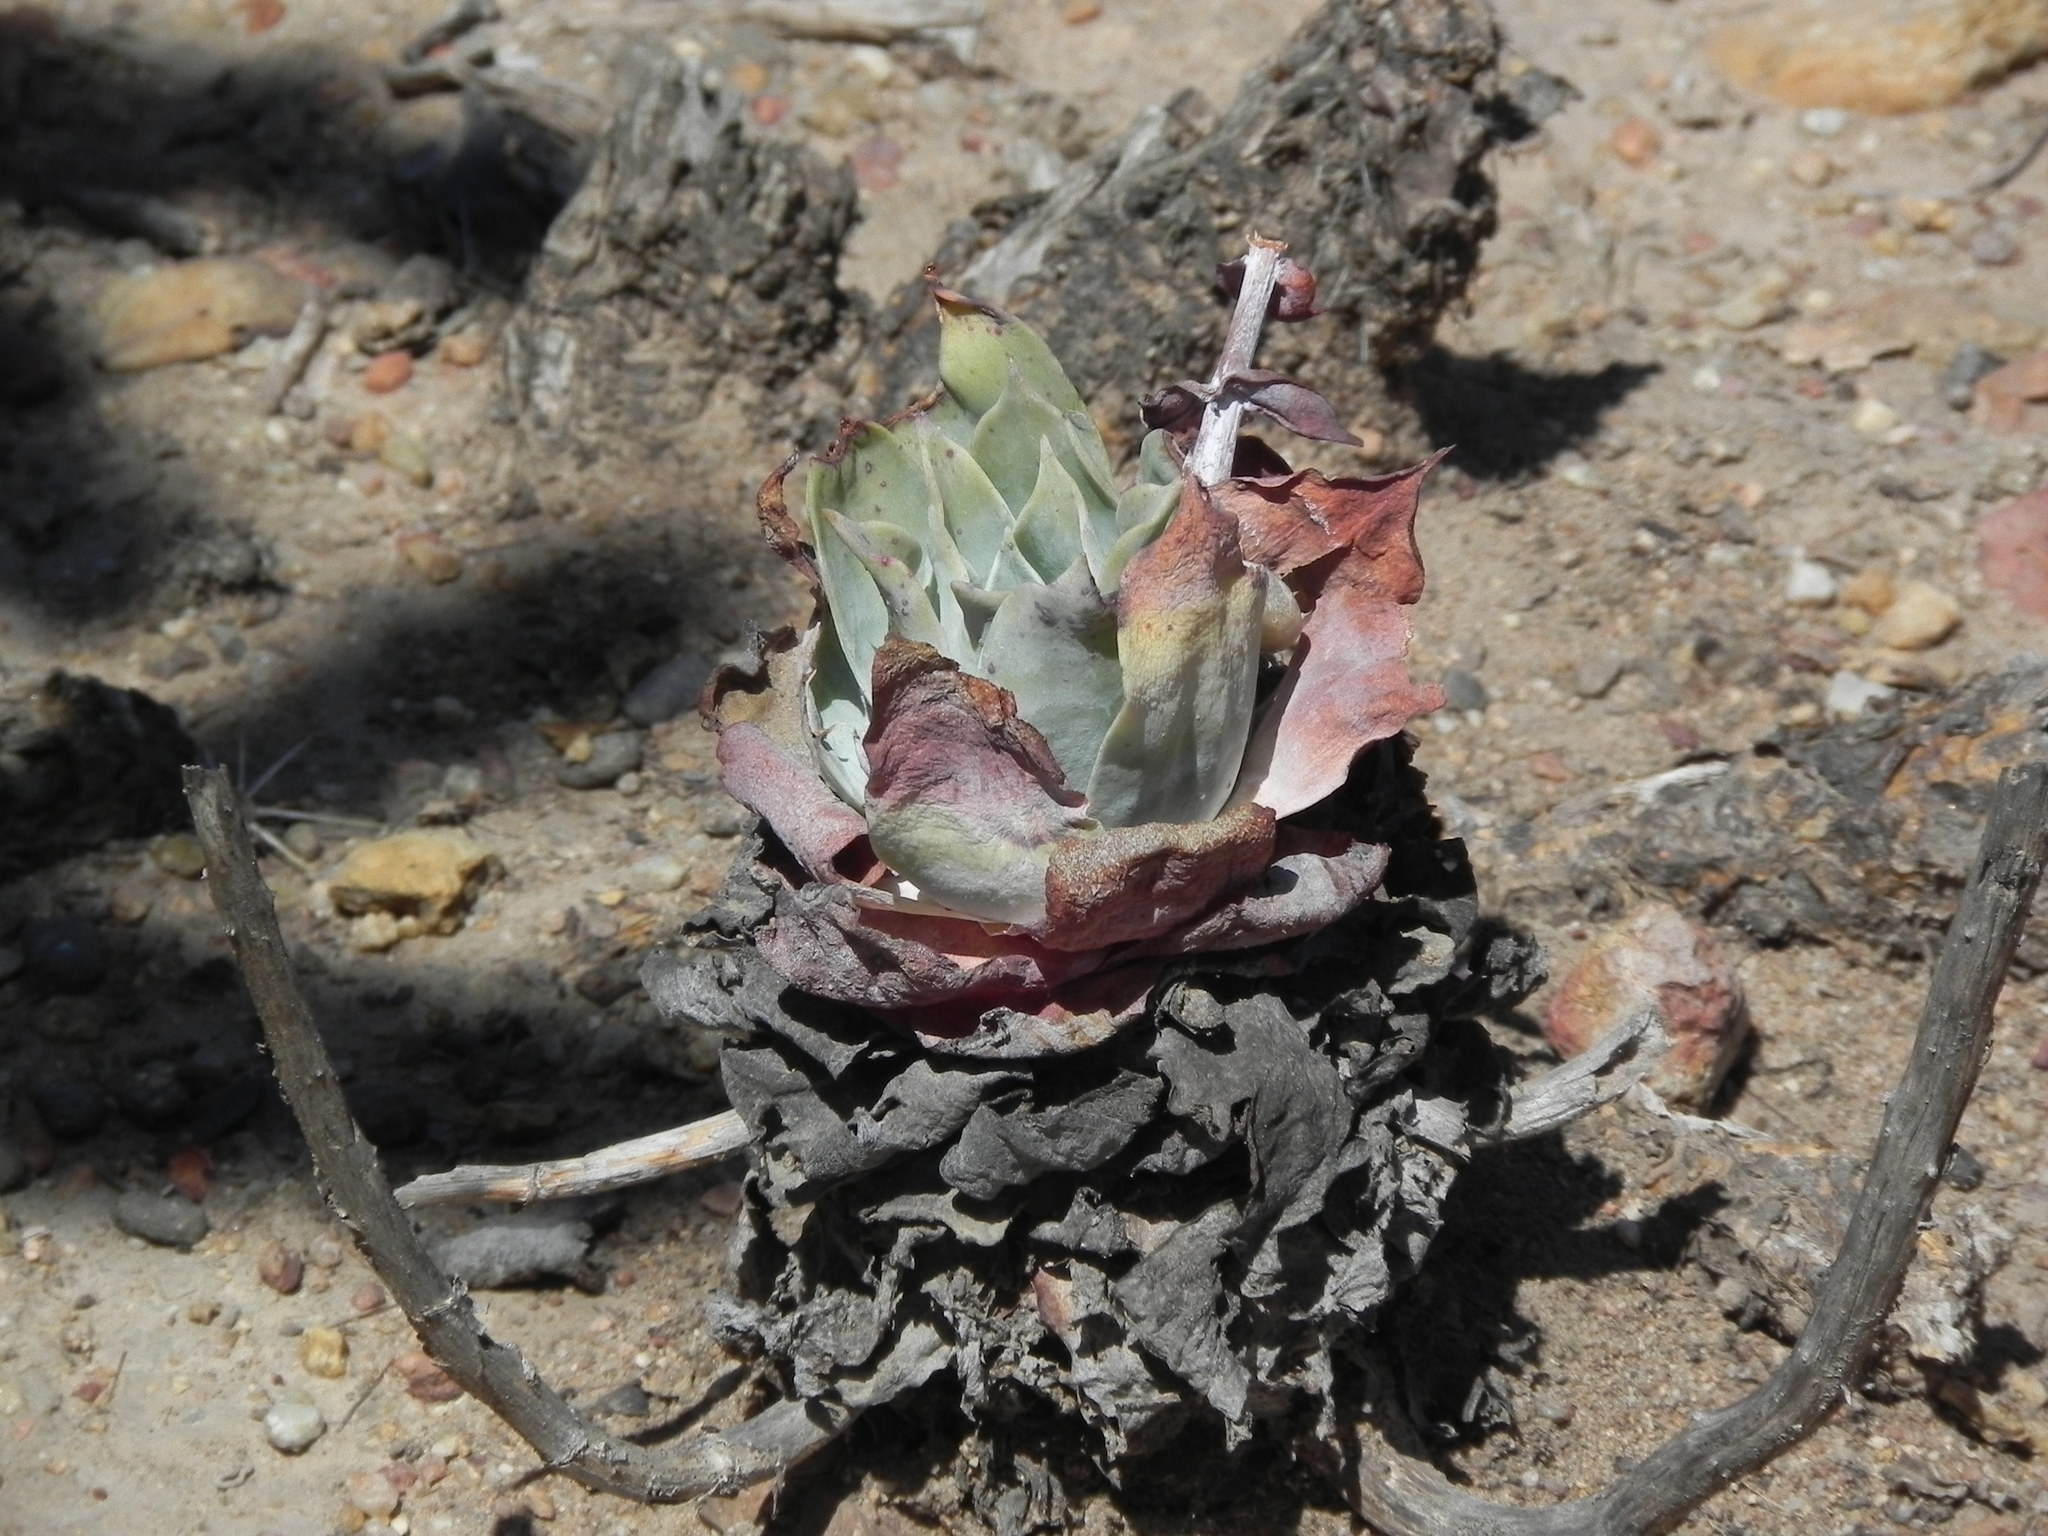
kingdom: Plantae
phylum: Tracheophyta
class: Magnoliopsida
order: Saxifragales
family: Crassulaceae
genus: Dudleya
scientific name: Dudleya pulverulenta
